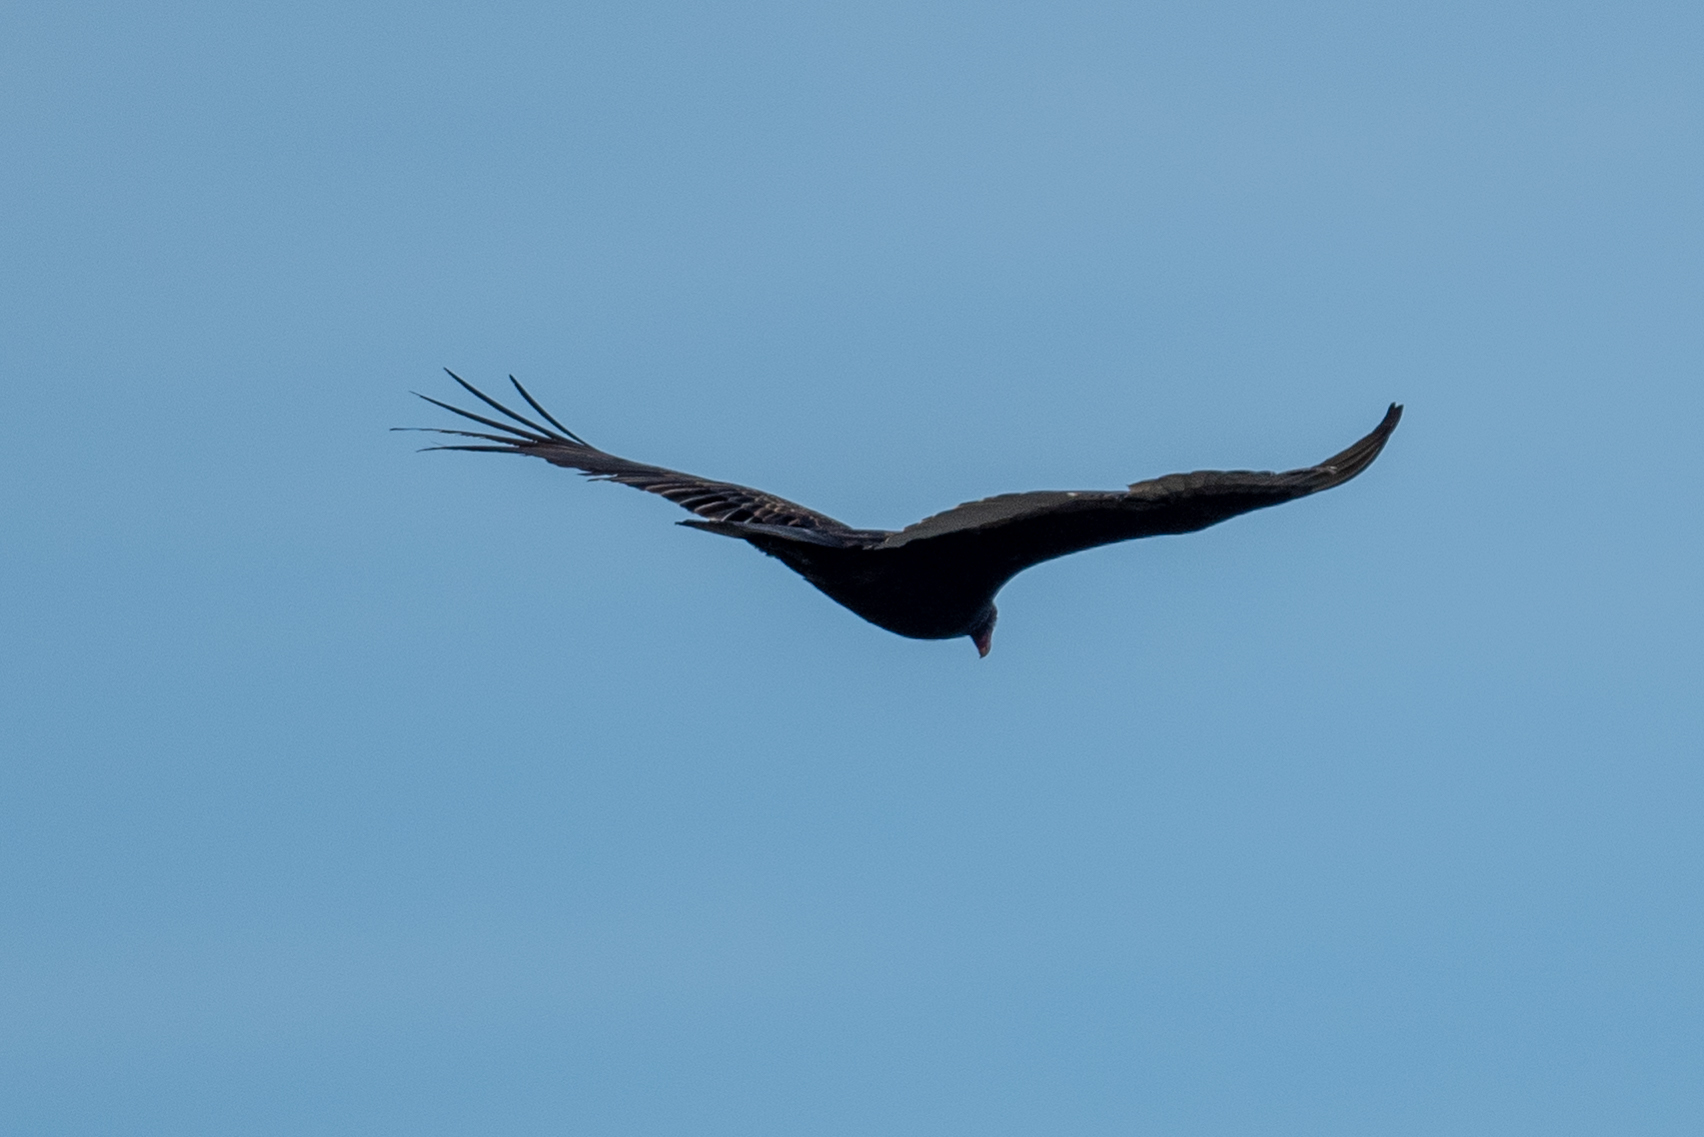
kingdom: Animalia
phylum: Chordata
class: Aves
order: Accipitriformes
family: Cathartidae
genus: Cathartes
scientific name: Cathartes aura
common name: Turkey vulture
